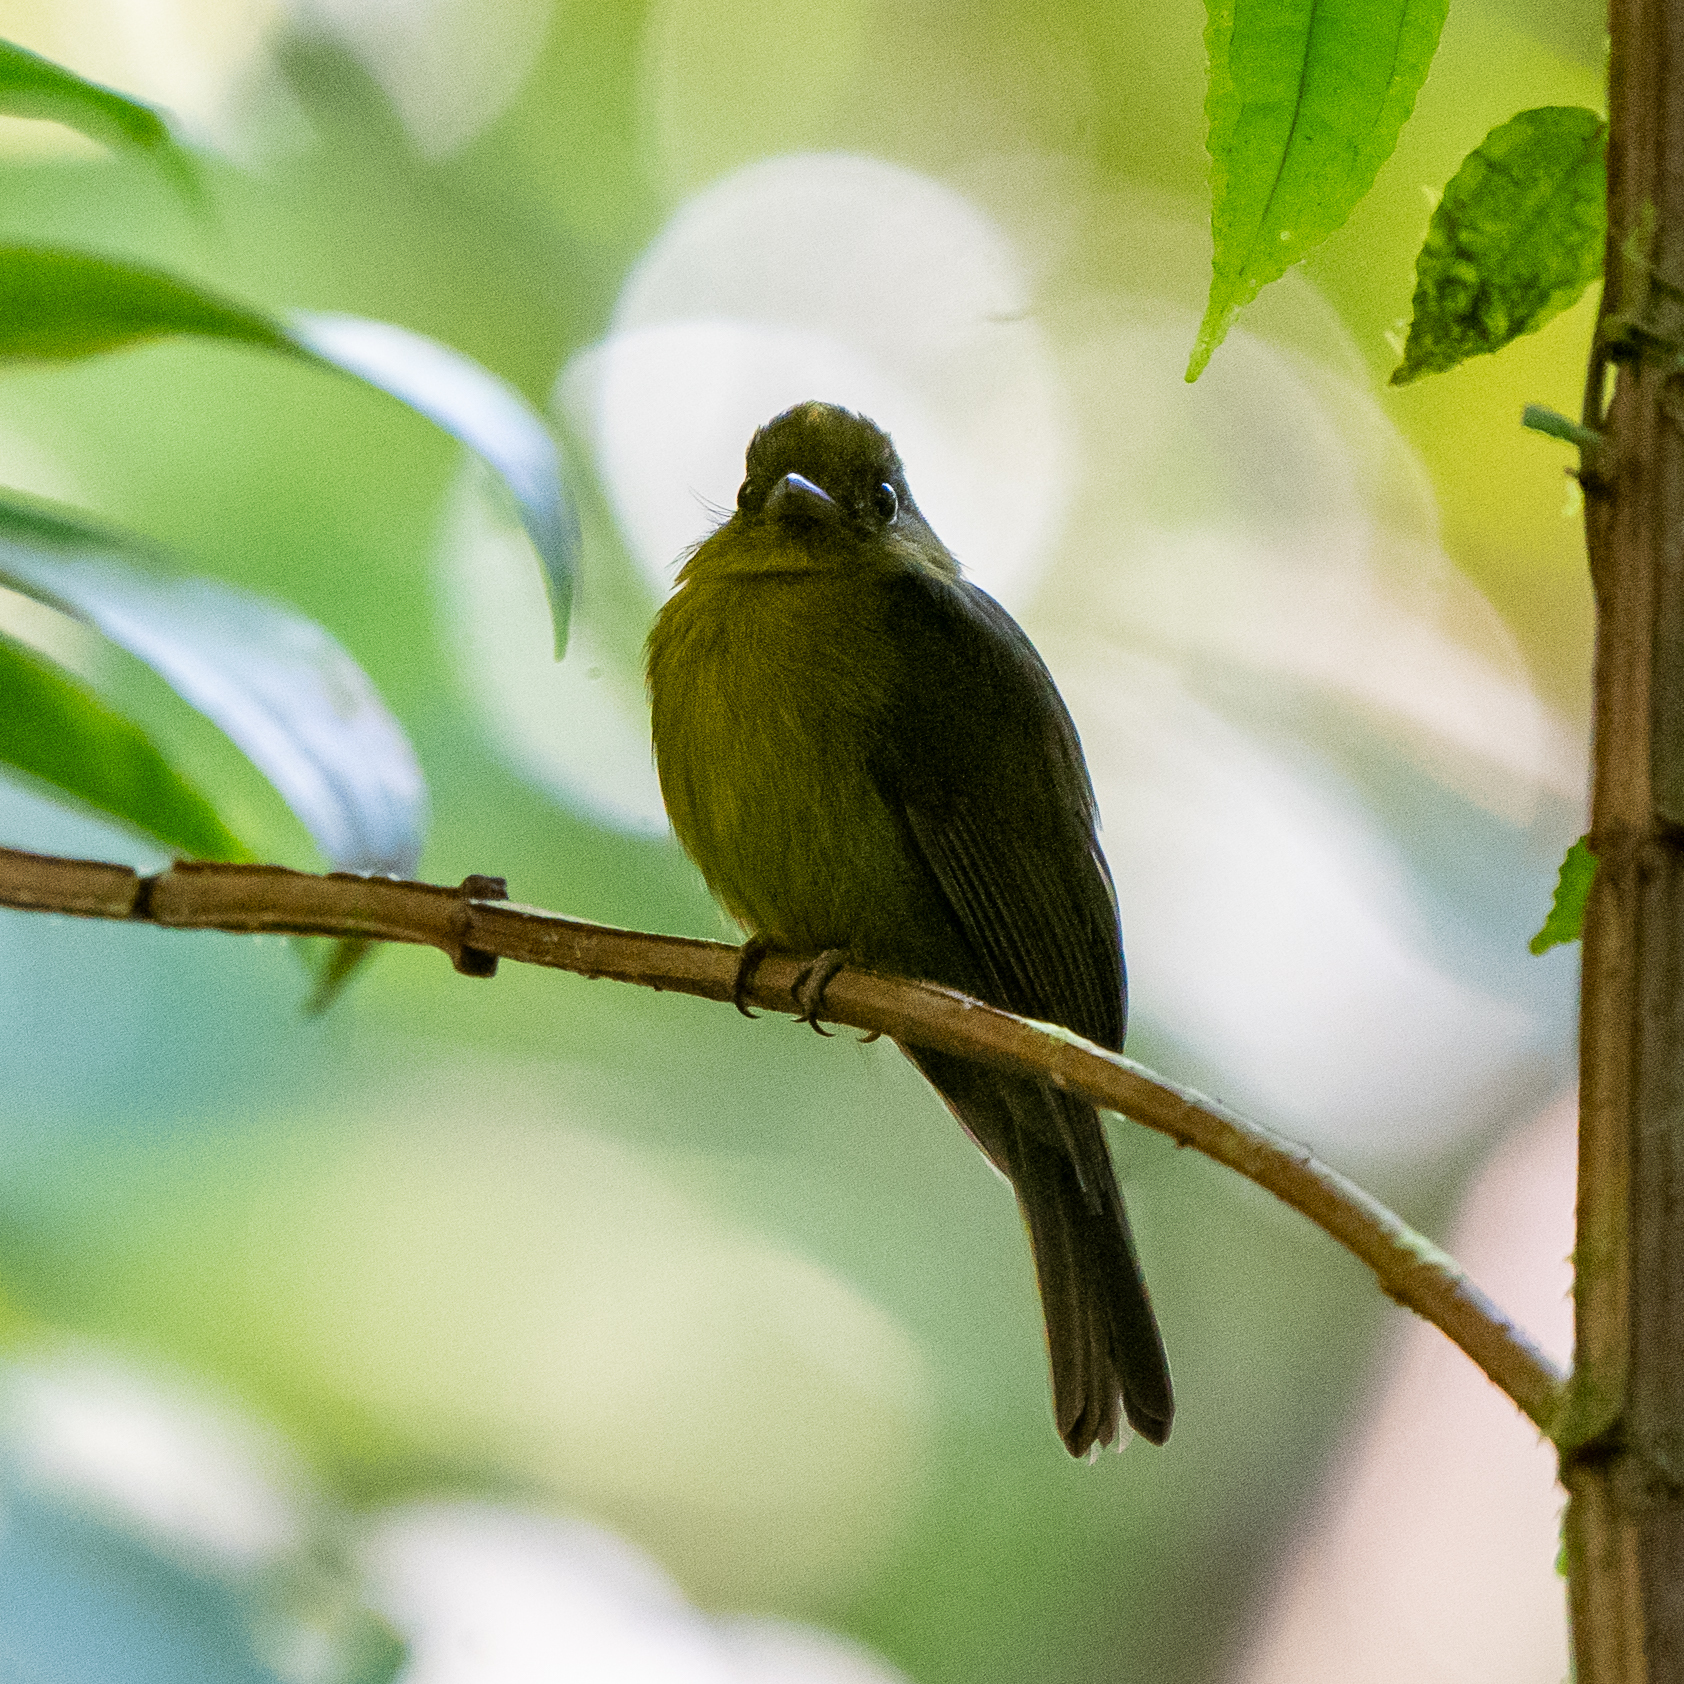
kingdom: Animalia
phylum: Chordata
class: Aves
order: Passeriformes
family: Sapayoaidae
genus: Sapayoa
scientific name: Sapayoa aenigma
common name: Sapayoa
